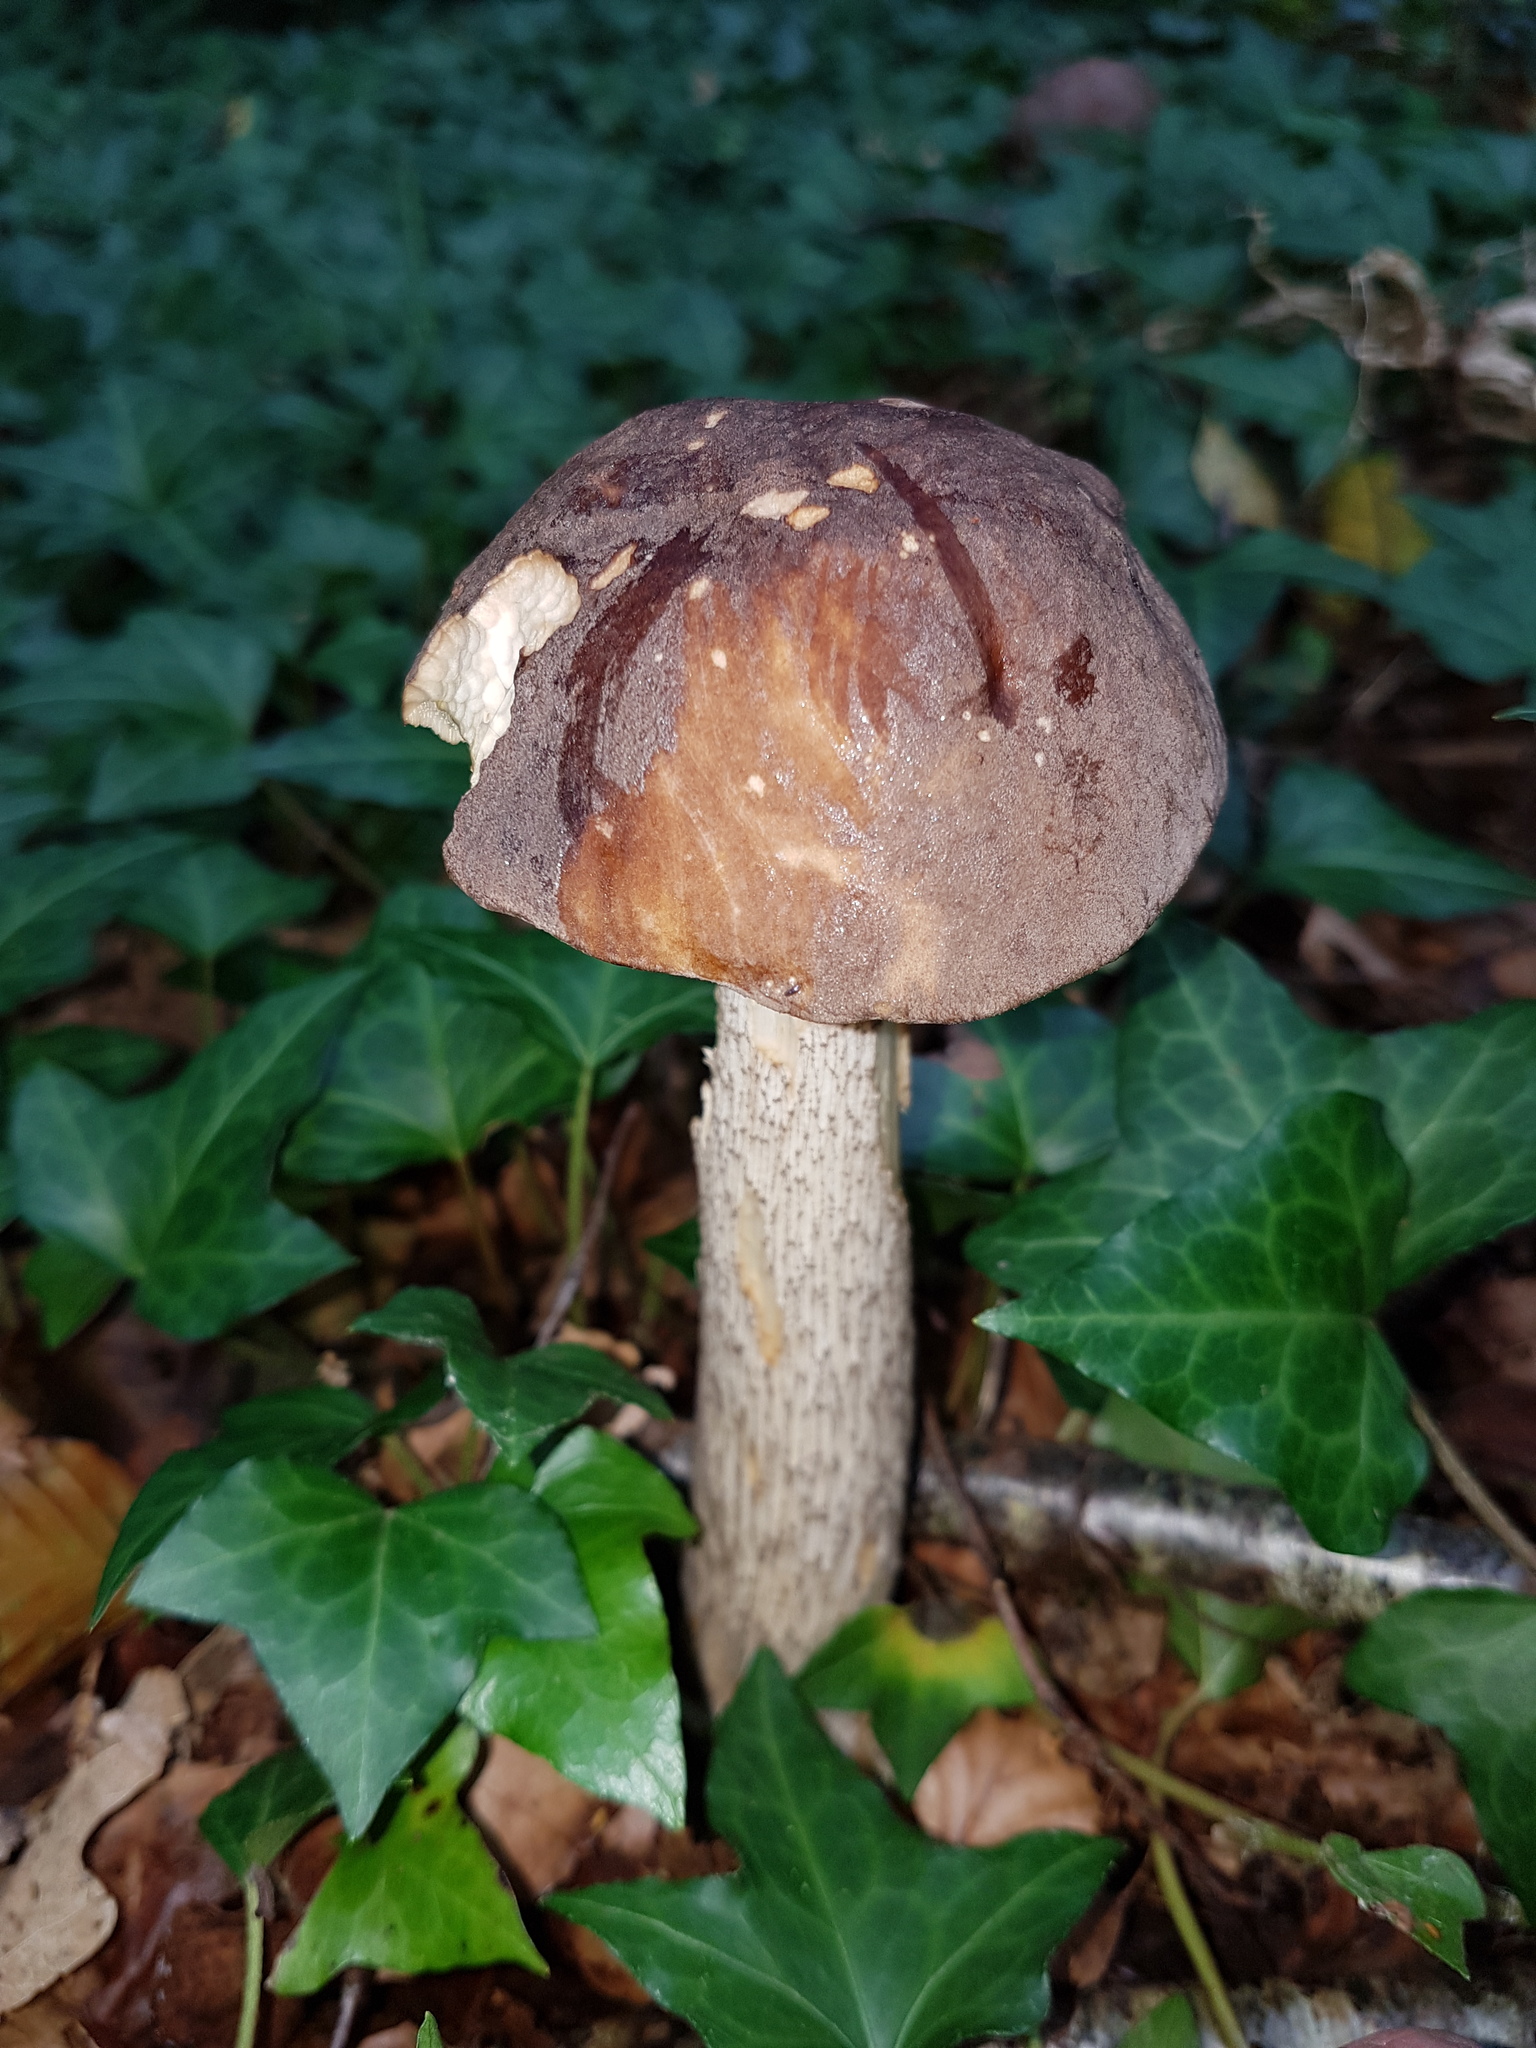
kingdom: Fungi
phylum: Basidiomycota
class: Agaricomycetes
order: Boletales
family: Boletaceae
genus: Leccinum
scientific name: Leccinum scabrum
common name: Blushing bolete
